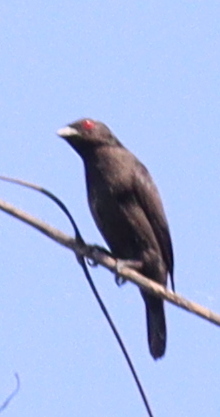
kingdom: Animalia
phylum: Chordata
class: Aves
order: Passeriformes
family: Estrildidae
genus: Nigrita
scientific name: Nigrita canicapillus
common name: Grey-headed nigrita
